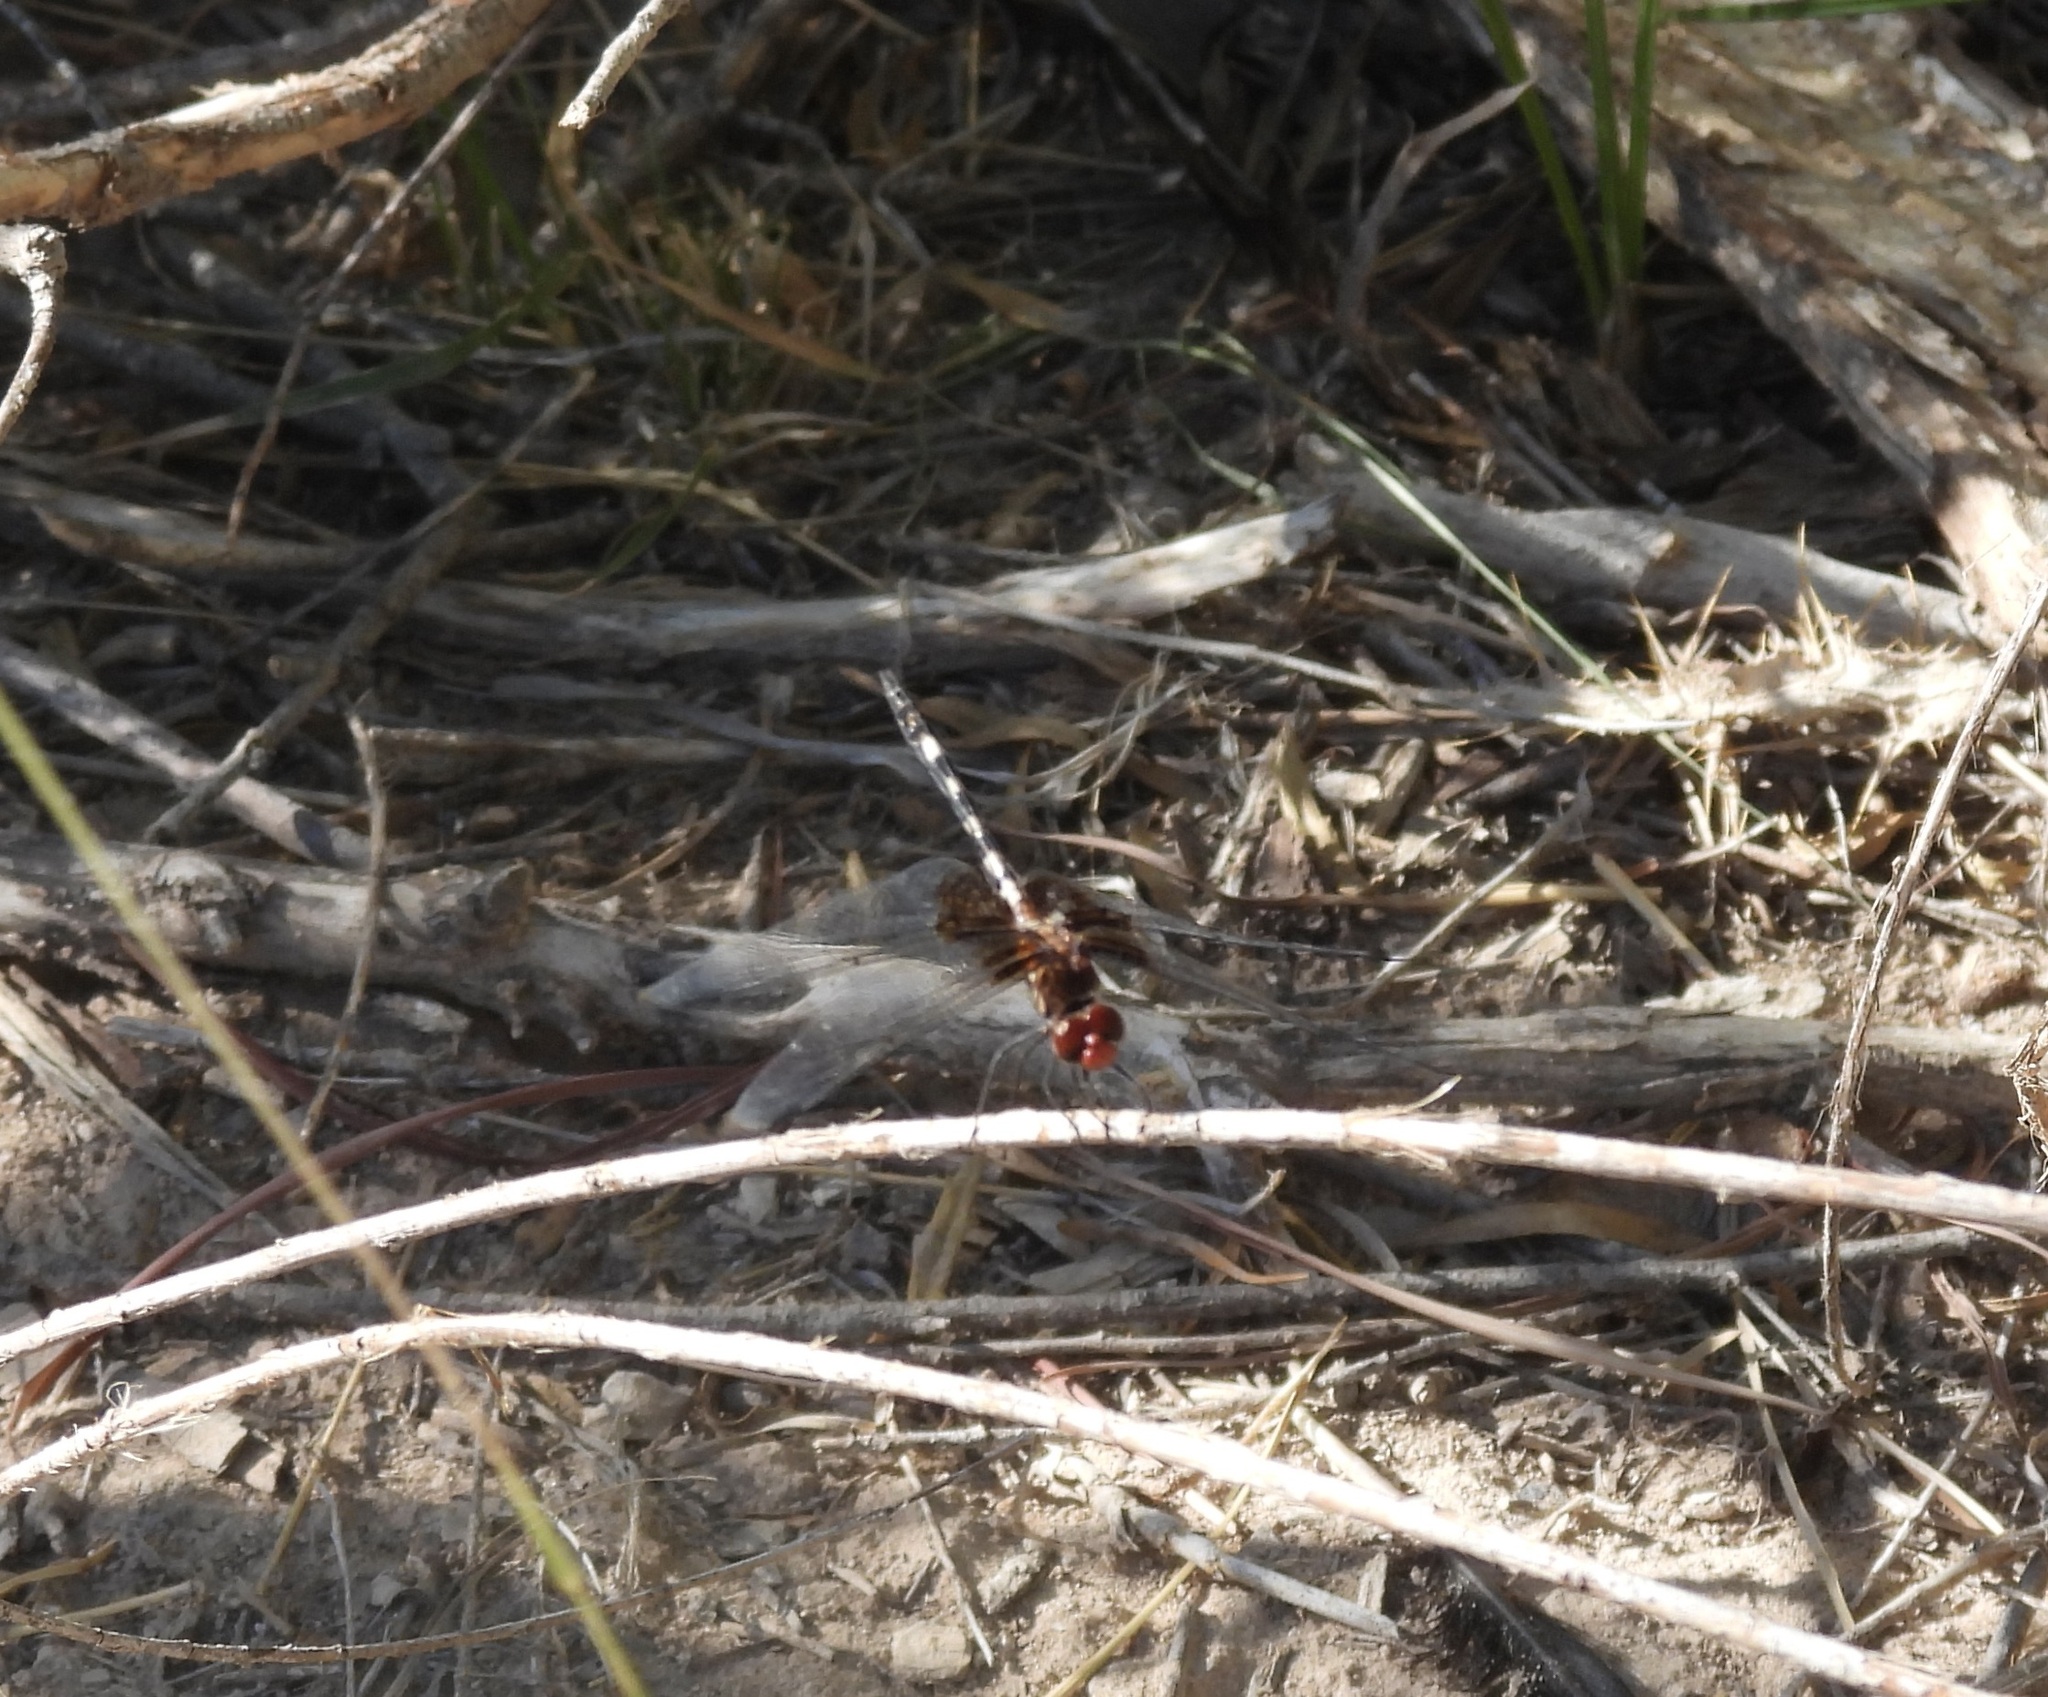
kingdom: Animalia
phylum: Arthropoda
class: Insecta
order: Odonata
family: Libellulidae
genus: Dythemis
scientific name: Dythemis fugax
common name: Checkered setwing
